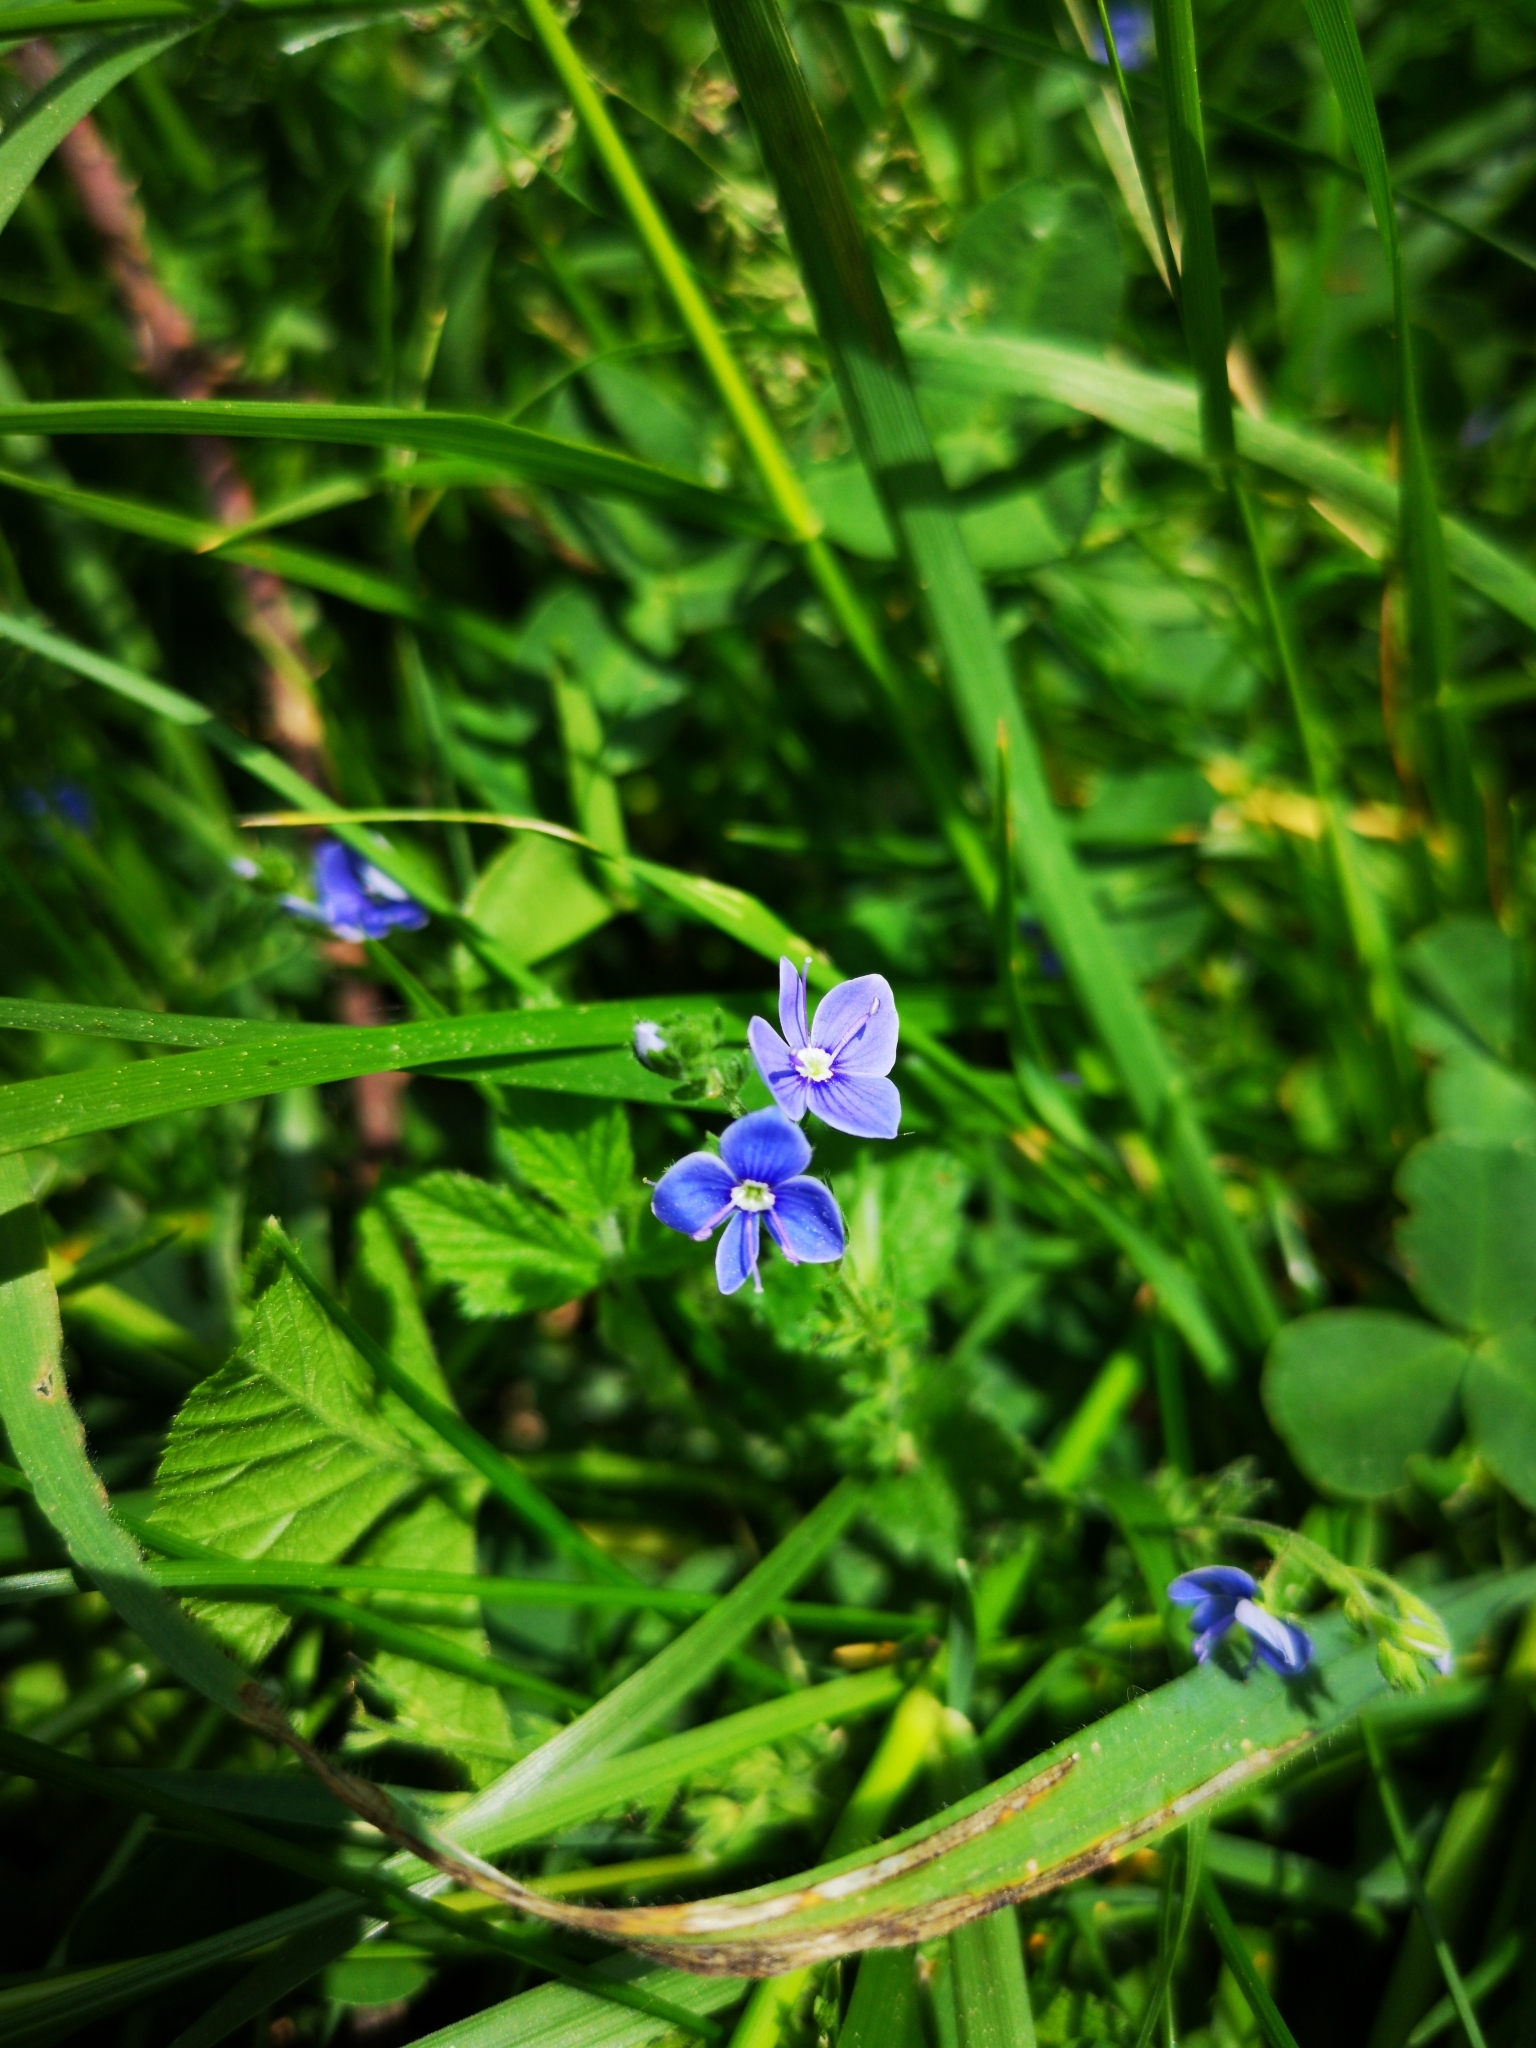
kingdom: Plantae
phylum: Tracheophyta
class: Magnoliopsida
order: Lamiales
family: Plantaginaceae
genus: Veronica
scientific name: Veronica chamaedrys
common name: Germander speedwell
